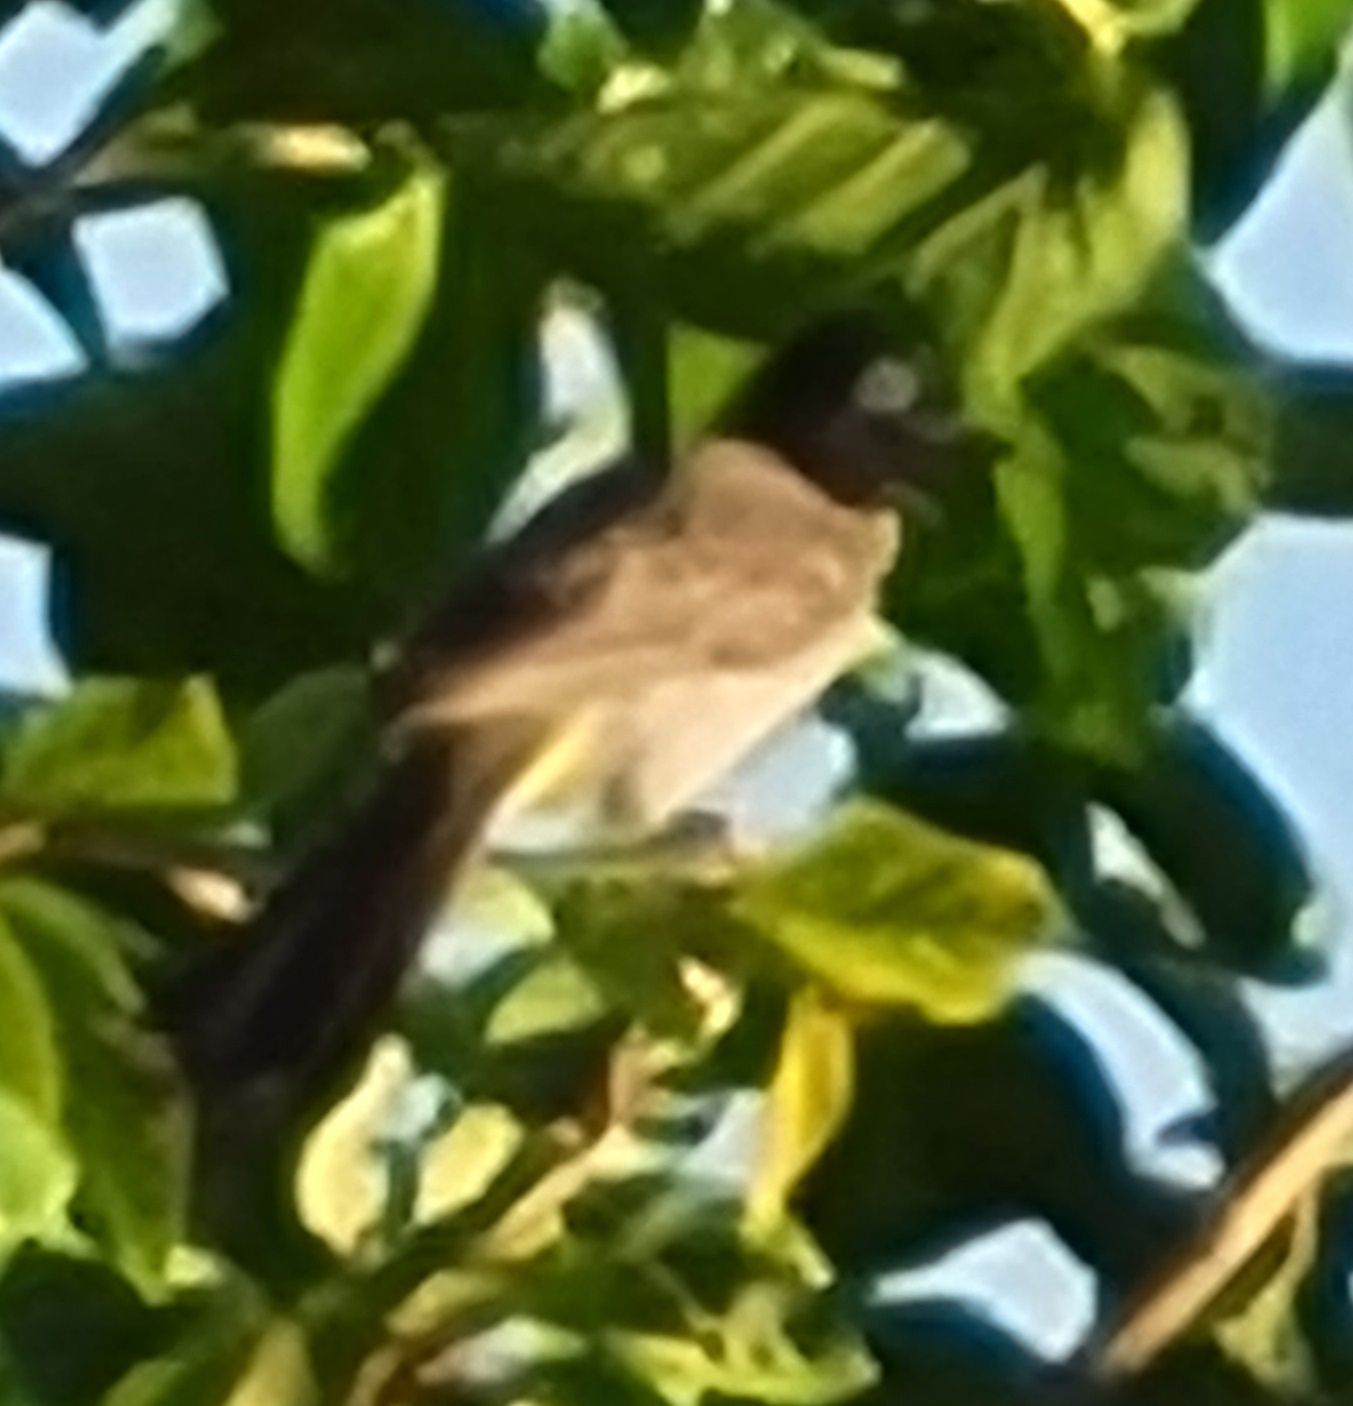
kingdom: Animalia
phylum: Chordata
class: Aves
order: Passeriformes
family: Pycnonotidae
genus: Pycnonotus
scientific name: Pycnonotus xanthopygos
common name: White-spectacled bulbul
